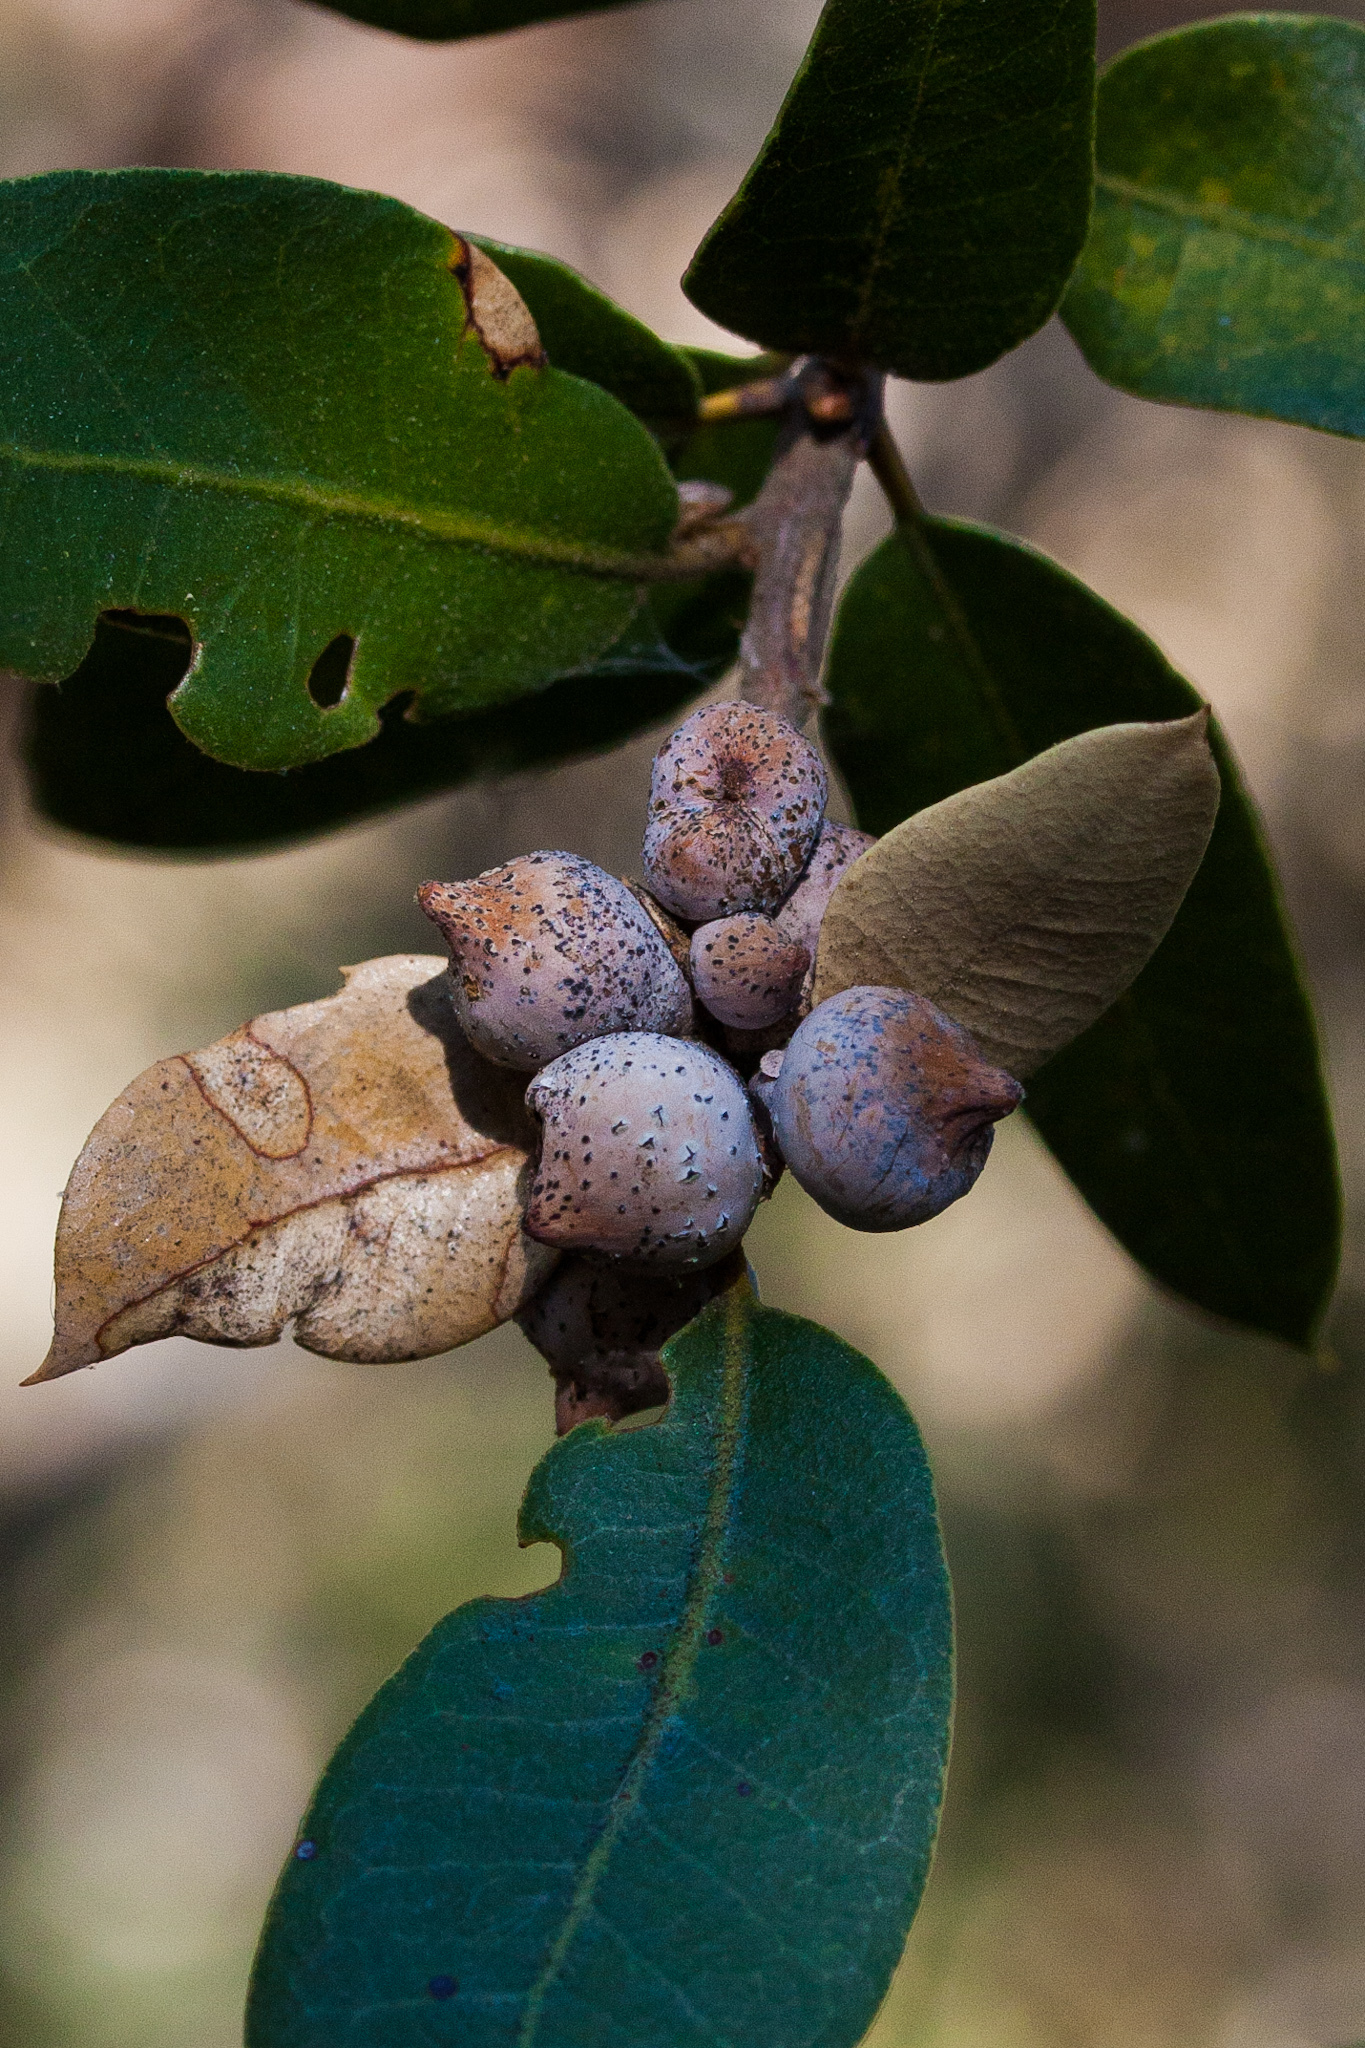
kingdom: Animalia
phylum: Arthropoda
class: Insecta
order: Hymenoptera
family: Cynipidae
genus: Heteroecus
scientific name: Heteroecus
